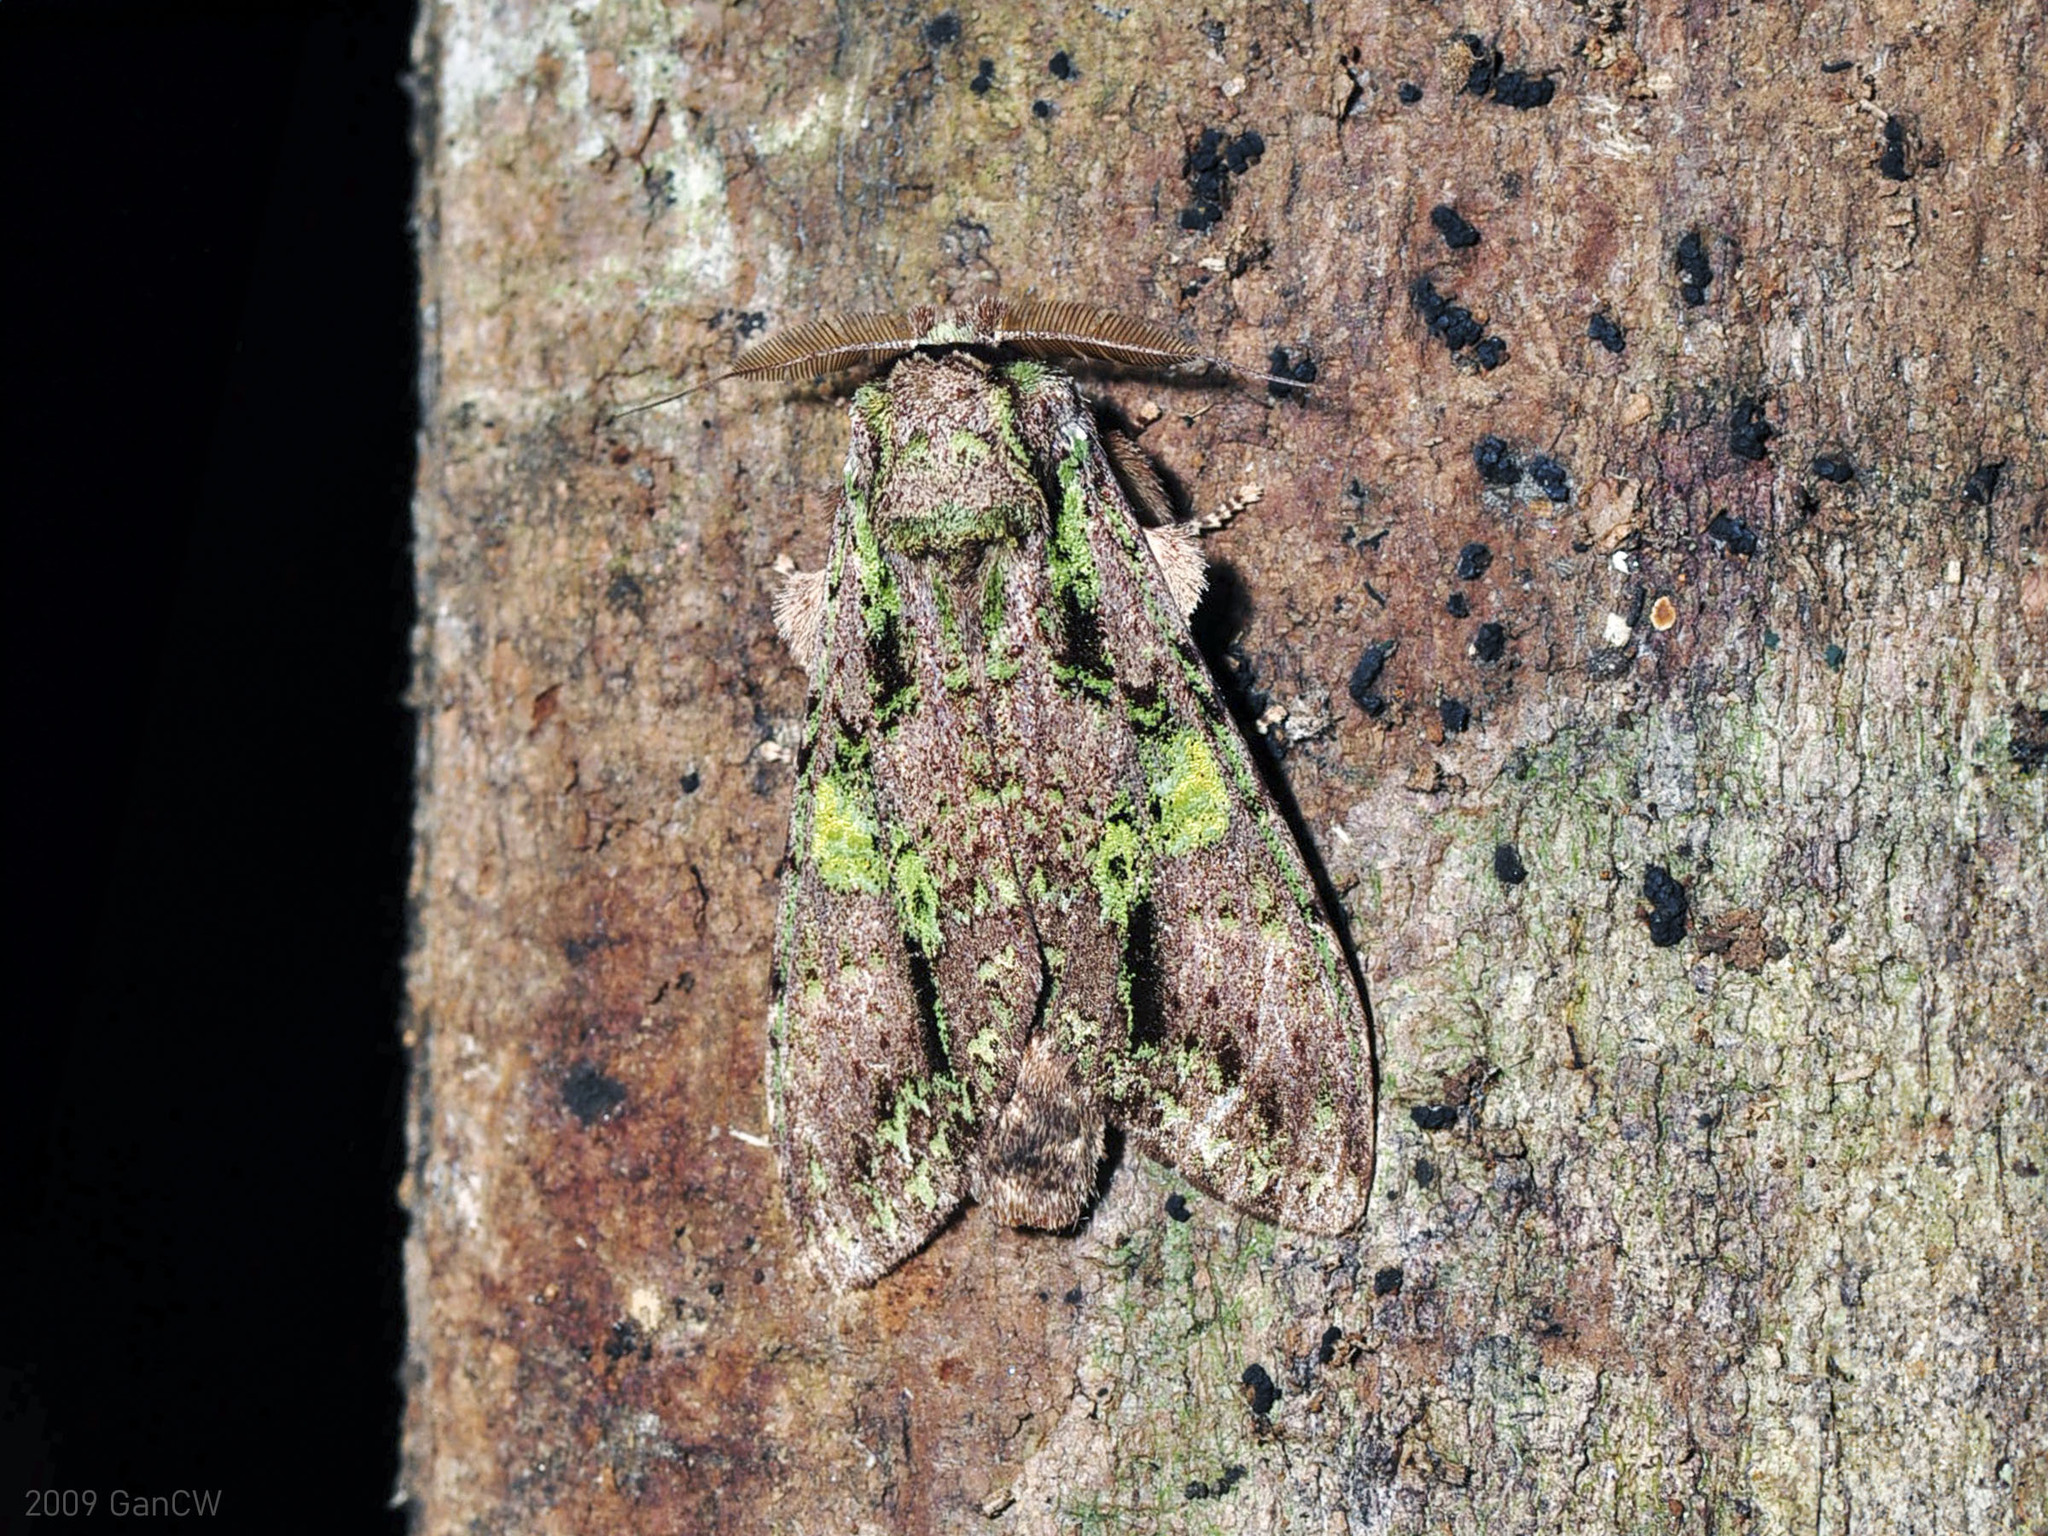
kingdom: Animalia
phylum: Arthropoda
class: Insecta
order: Lepidoptera
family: Notodontidae
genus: Oxoia
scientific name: Oxoia smaragdiplena
